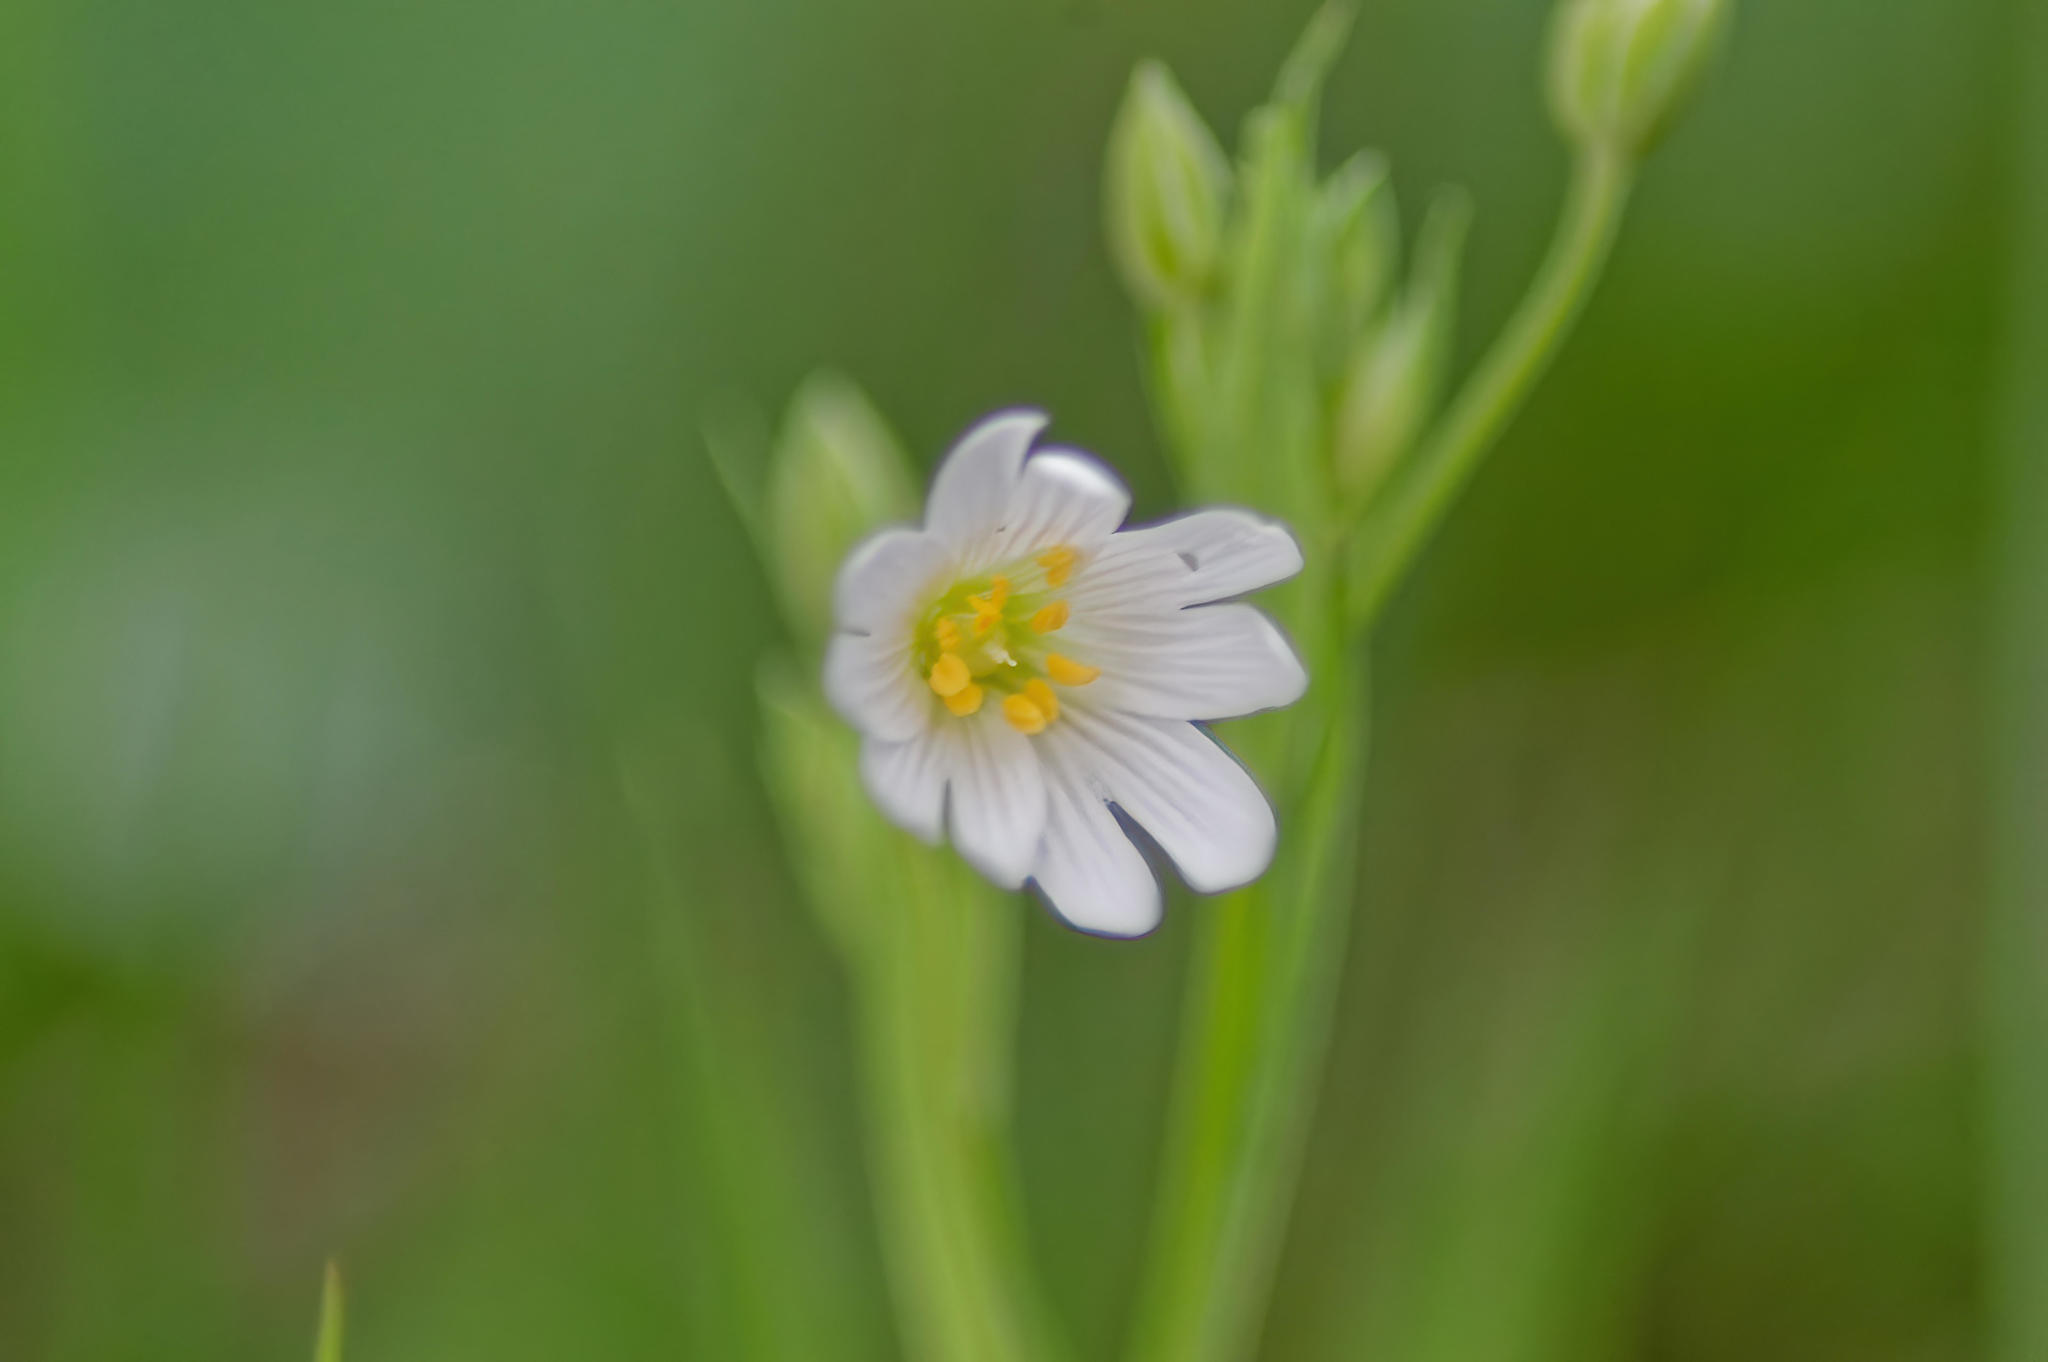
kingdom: Plantae
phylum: Tracheophyta
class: Magnoliopsida
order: Caryophyllales
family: Caryophyllaceae
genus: Rabelera
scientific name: Rabelera holostea
